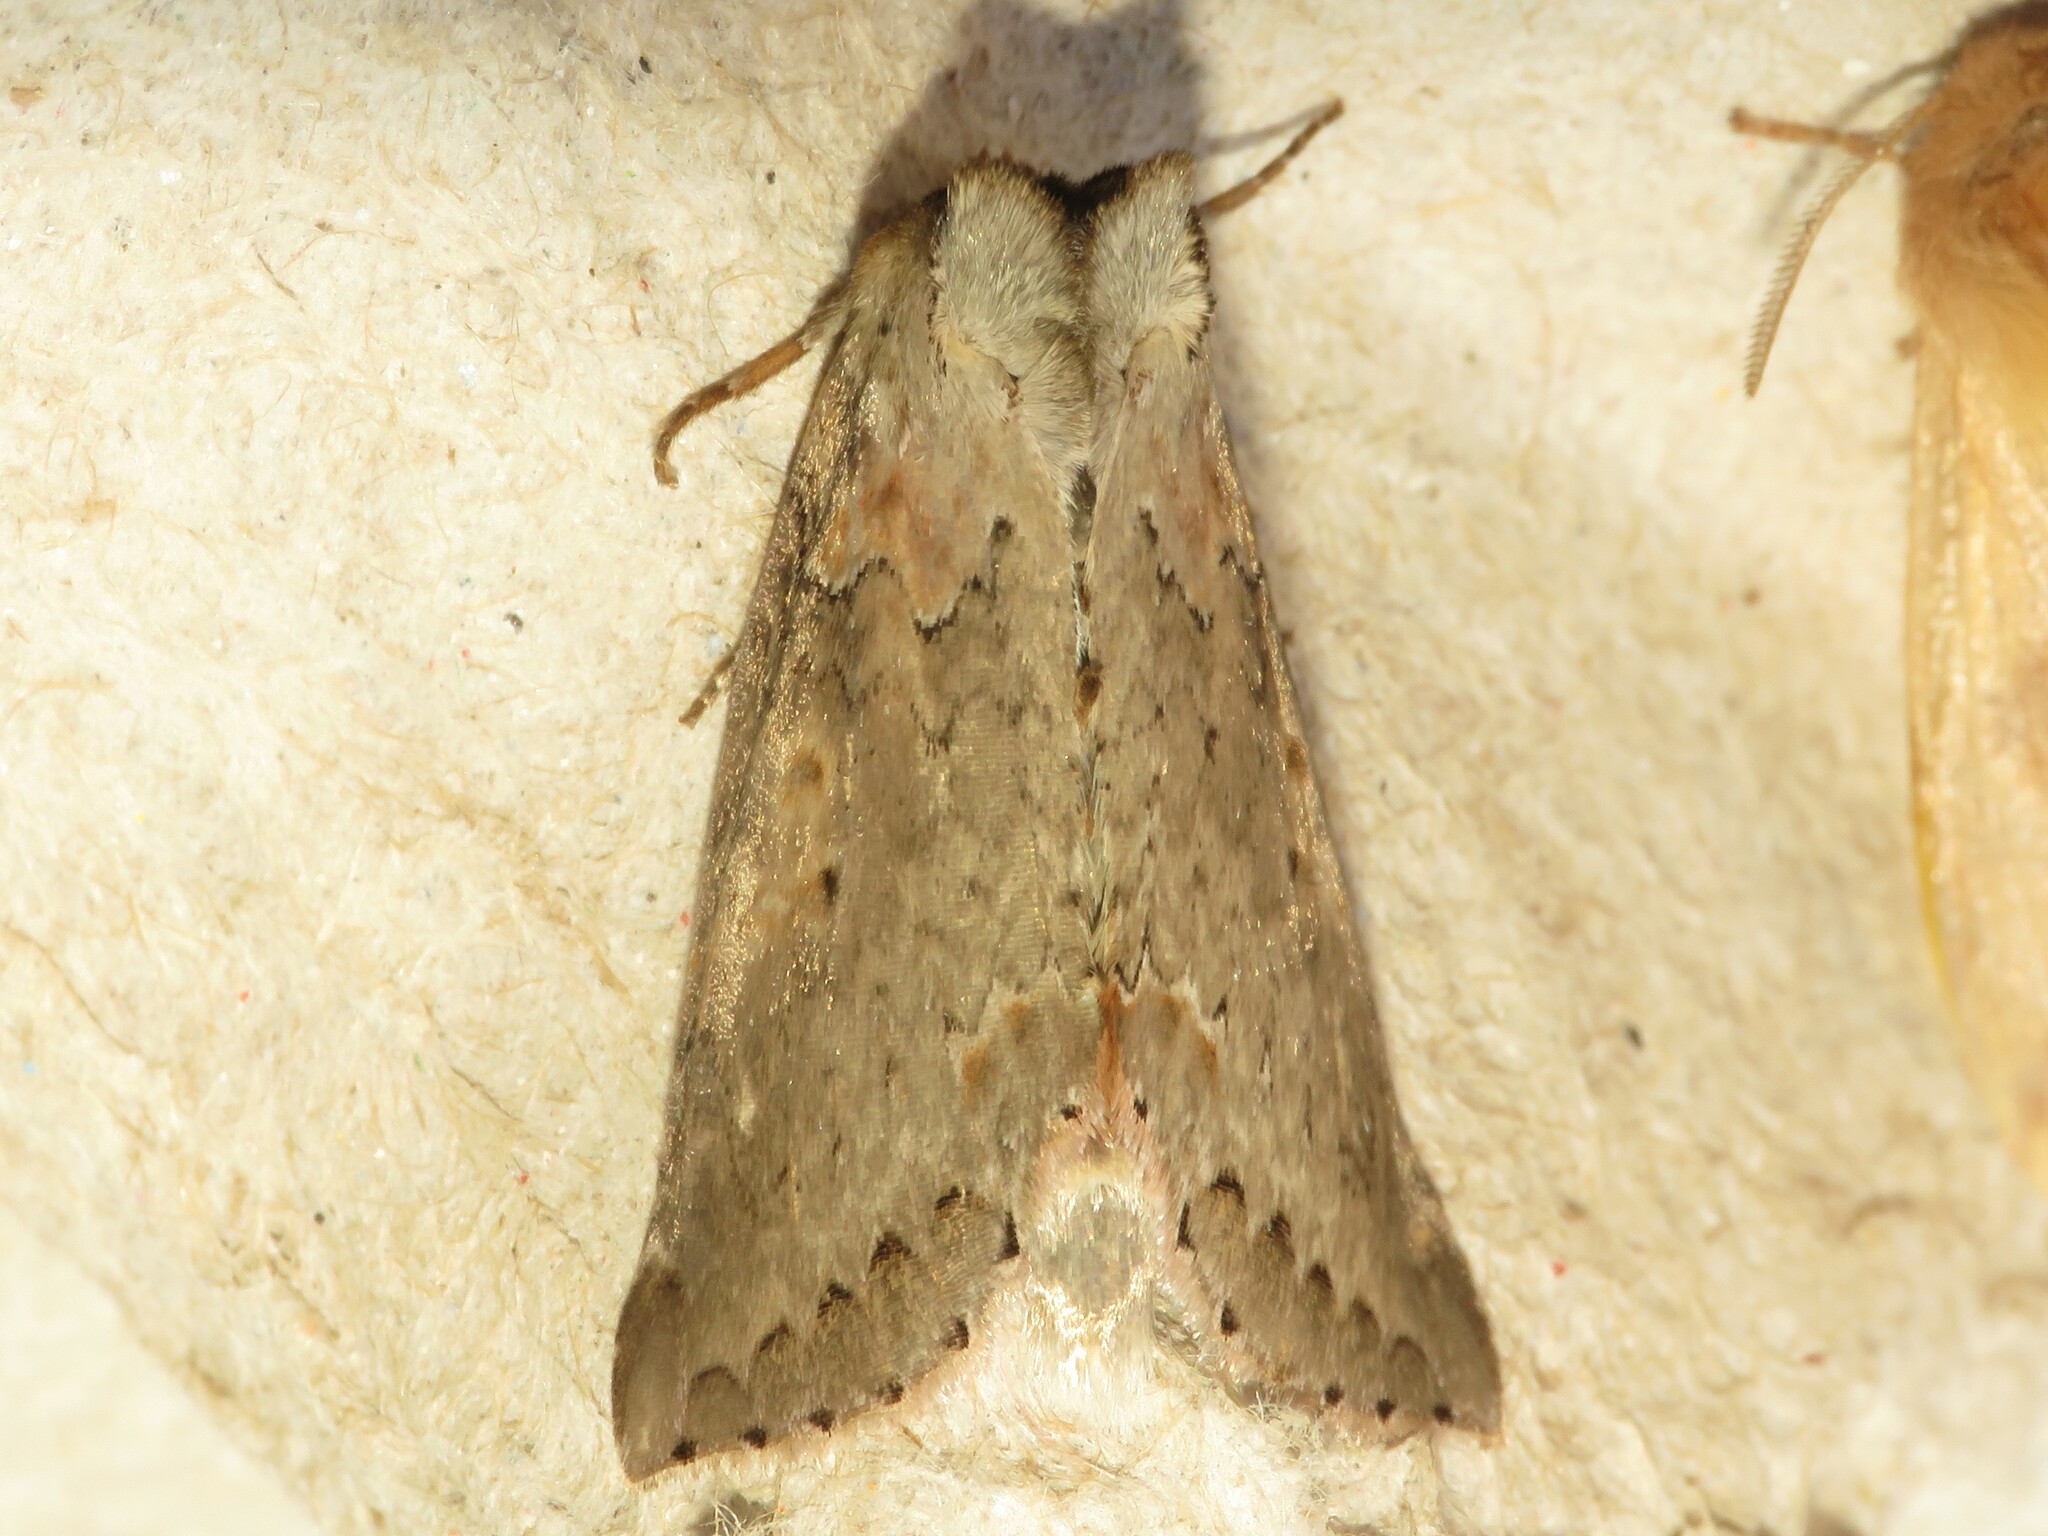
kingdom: Animalia
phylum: Arthropoda
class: Insecta
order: Lepidoptera
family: Drepanidae
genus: Pseudothyatira
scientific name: Pseudothyatira cymatophoroides
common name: Tufted thyatirid moth
